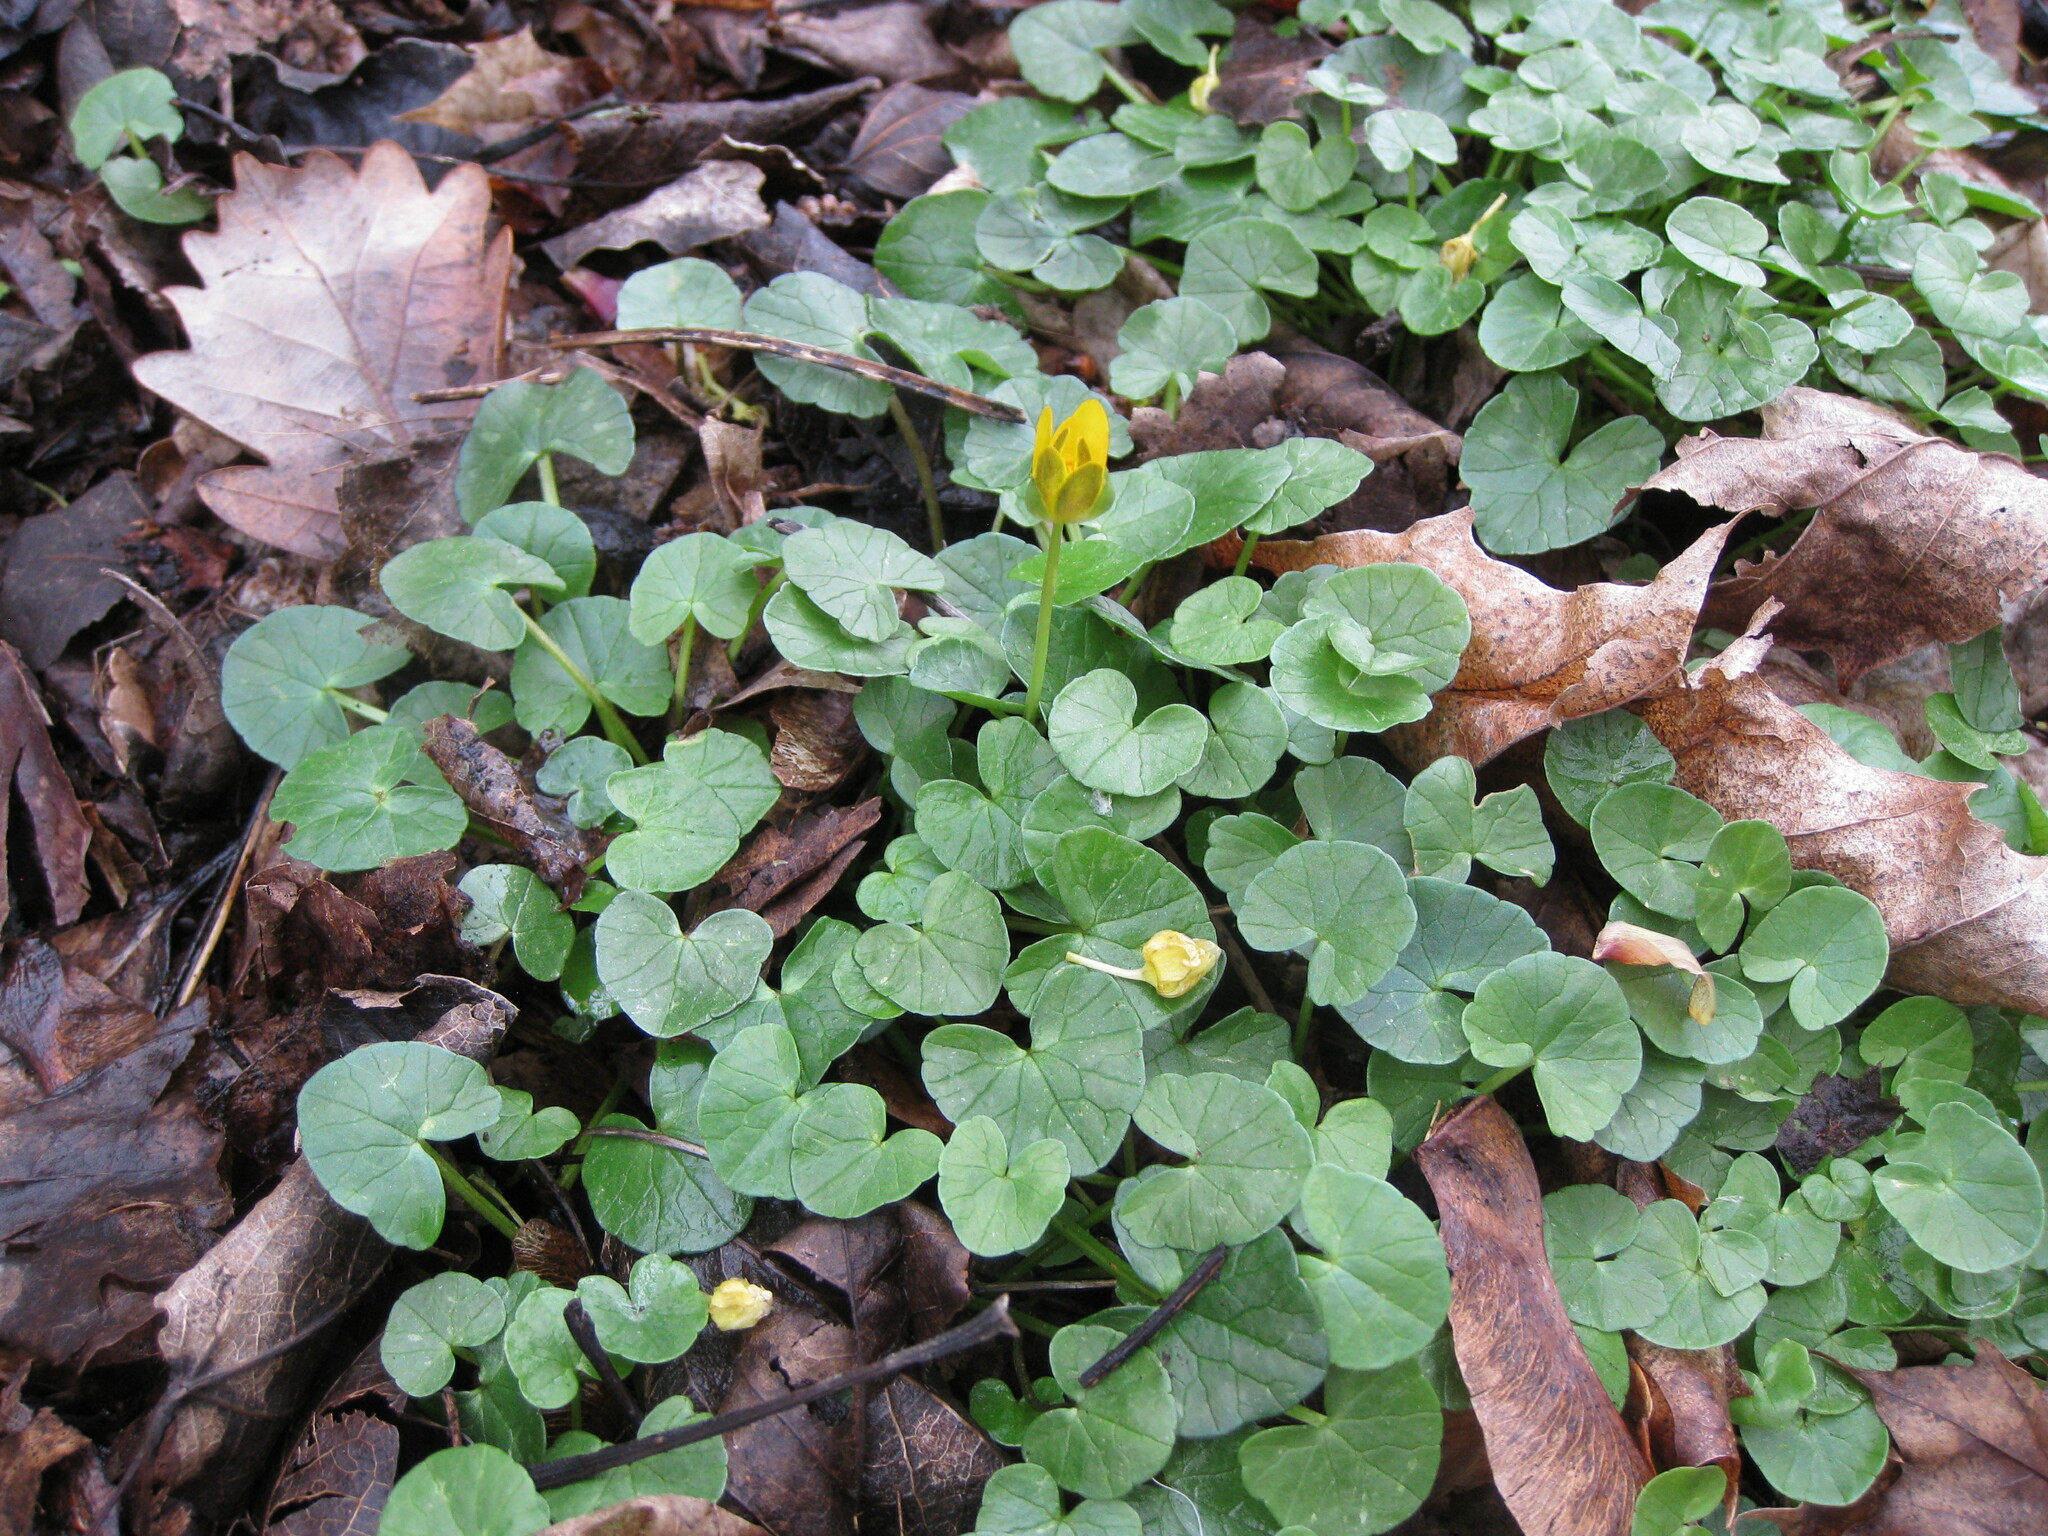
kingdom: Plantae
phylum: Tracheophyta
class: Magnoliopsida
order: Ranunculales
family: Ranunculaceae
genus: Ficaria
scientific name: Ficaria verna
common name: Lesser celandine
